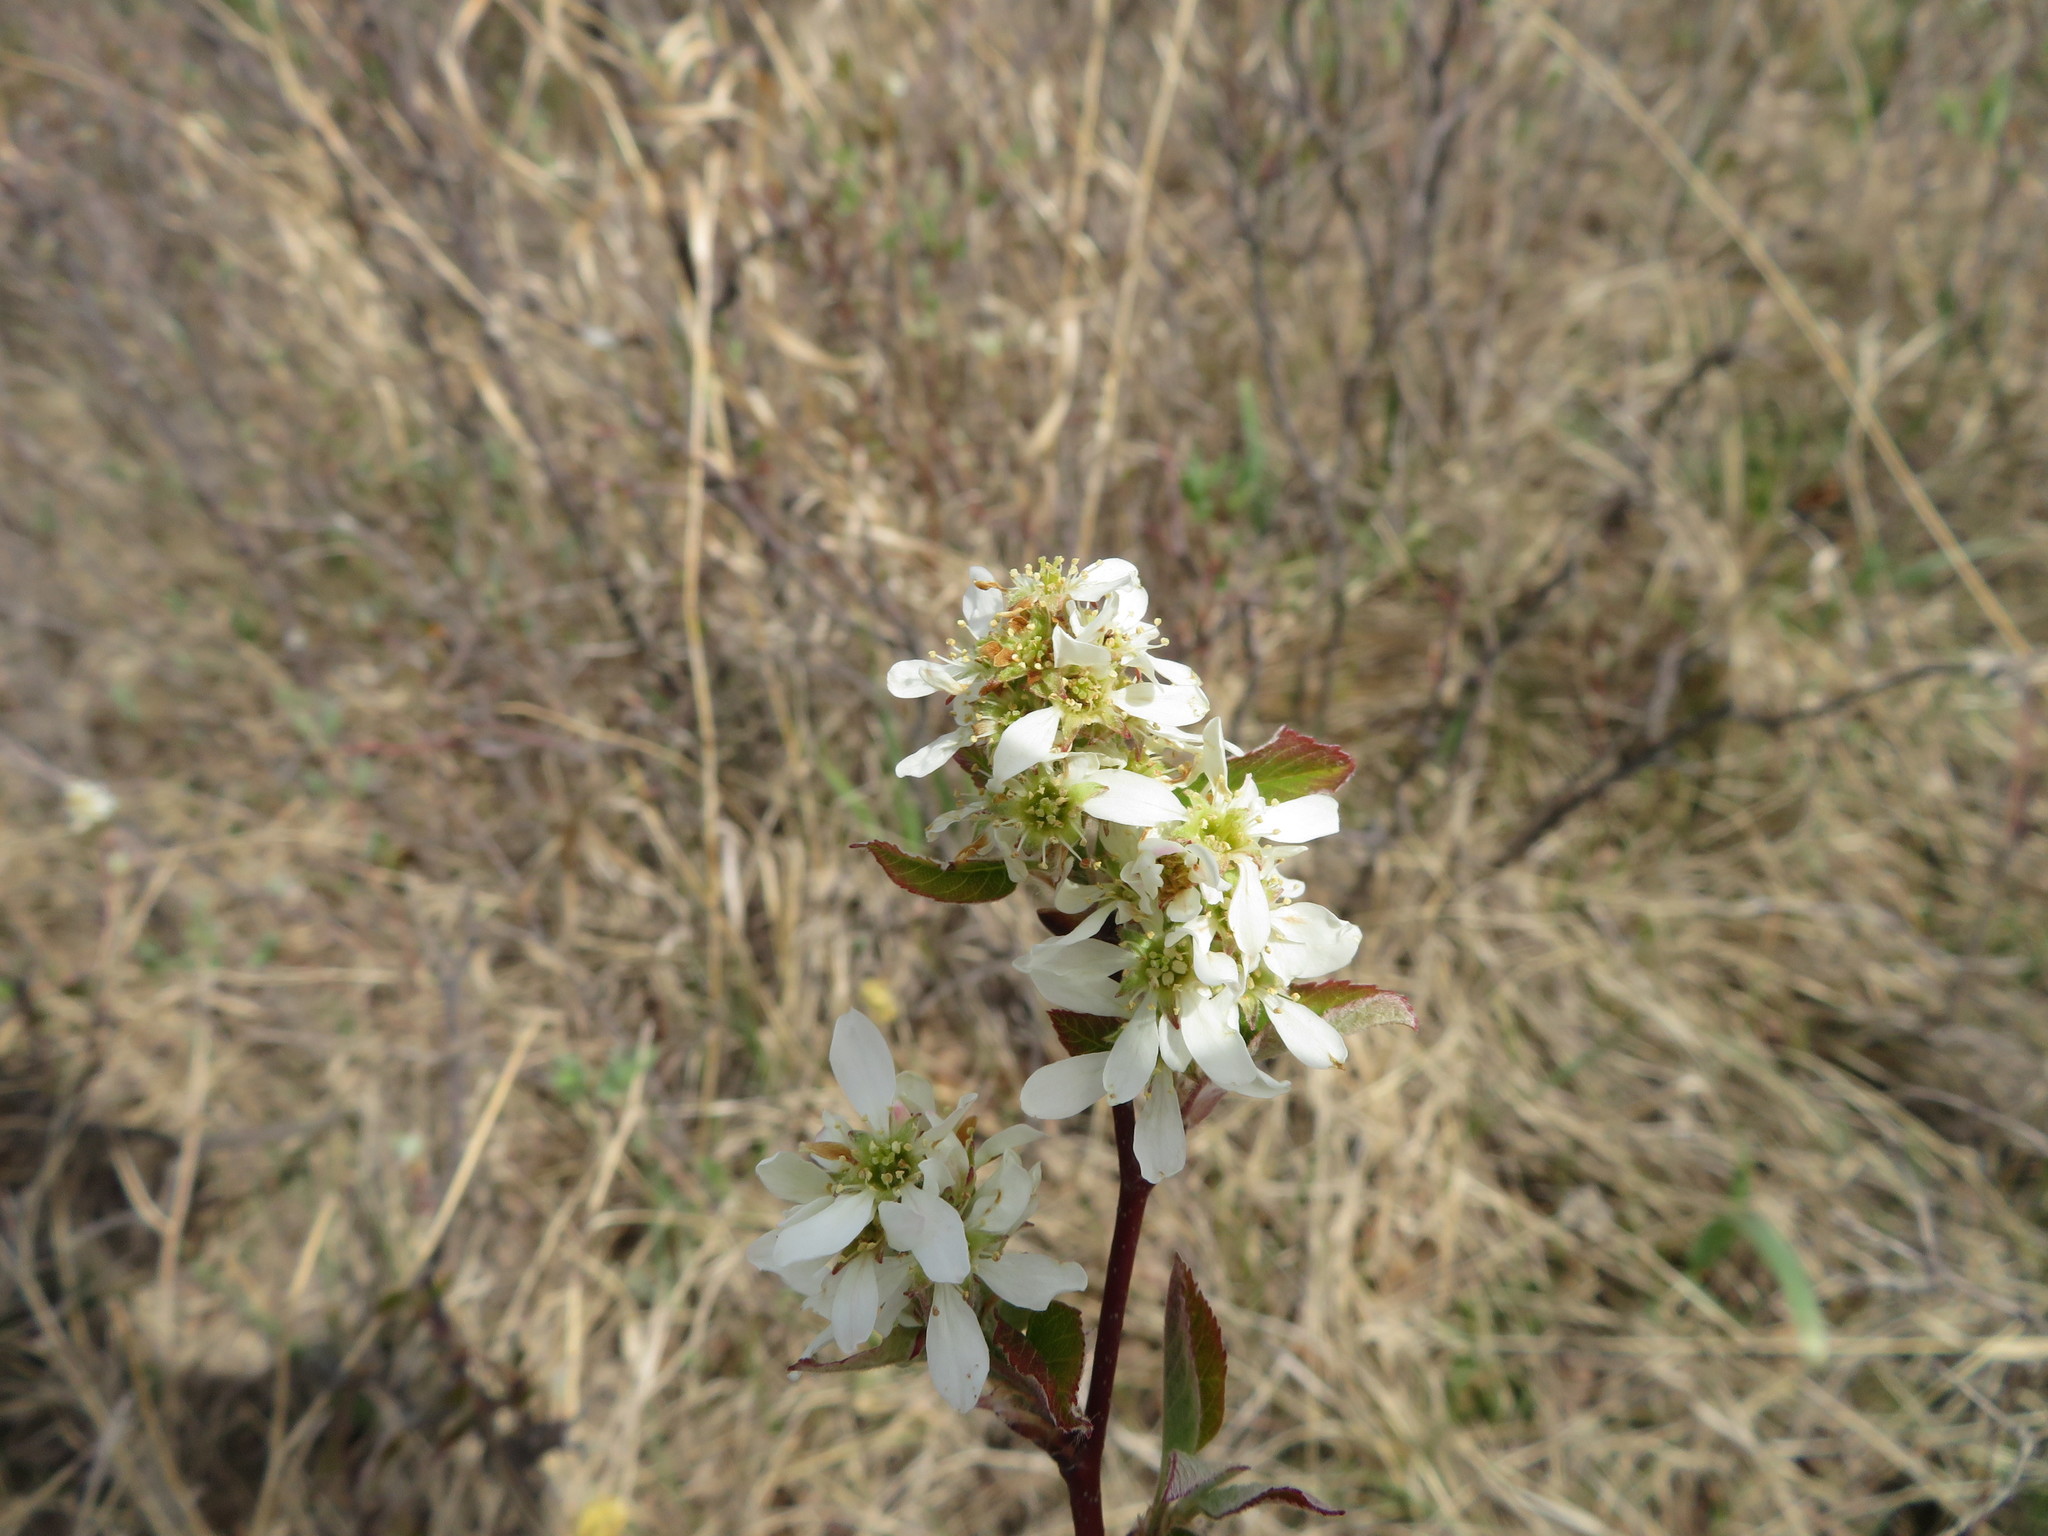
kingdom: Plantae
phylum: Tracheophyta
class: Magnoliopsida
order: Rosales
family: Rosaceae
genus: Amelanchier
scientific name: Amelanchier alnifolia
